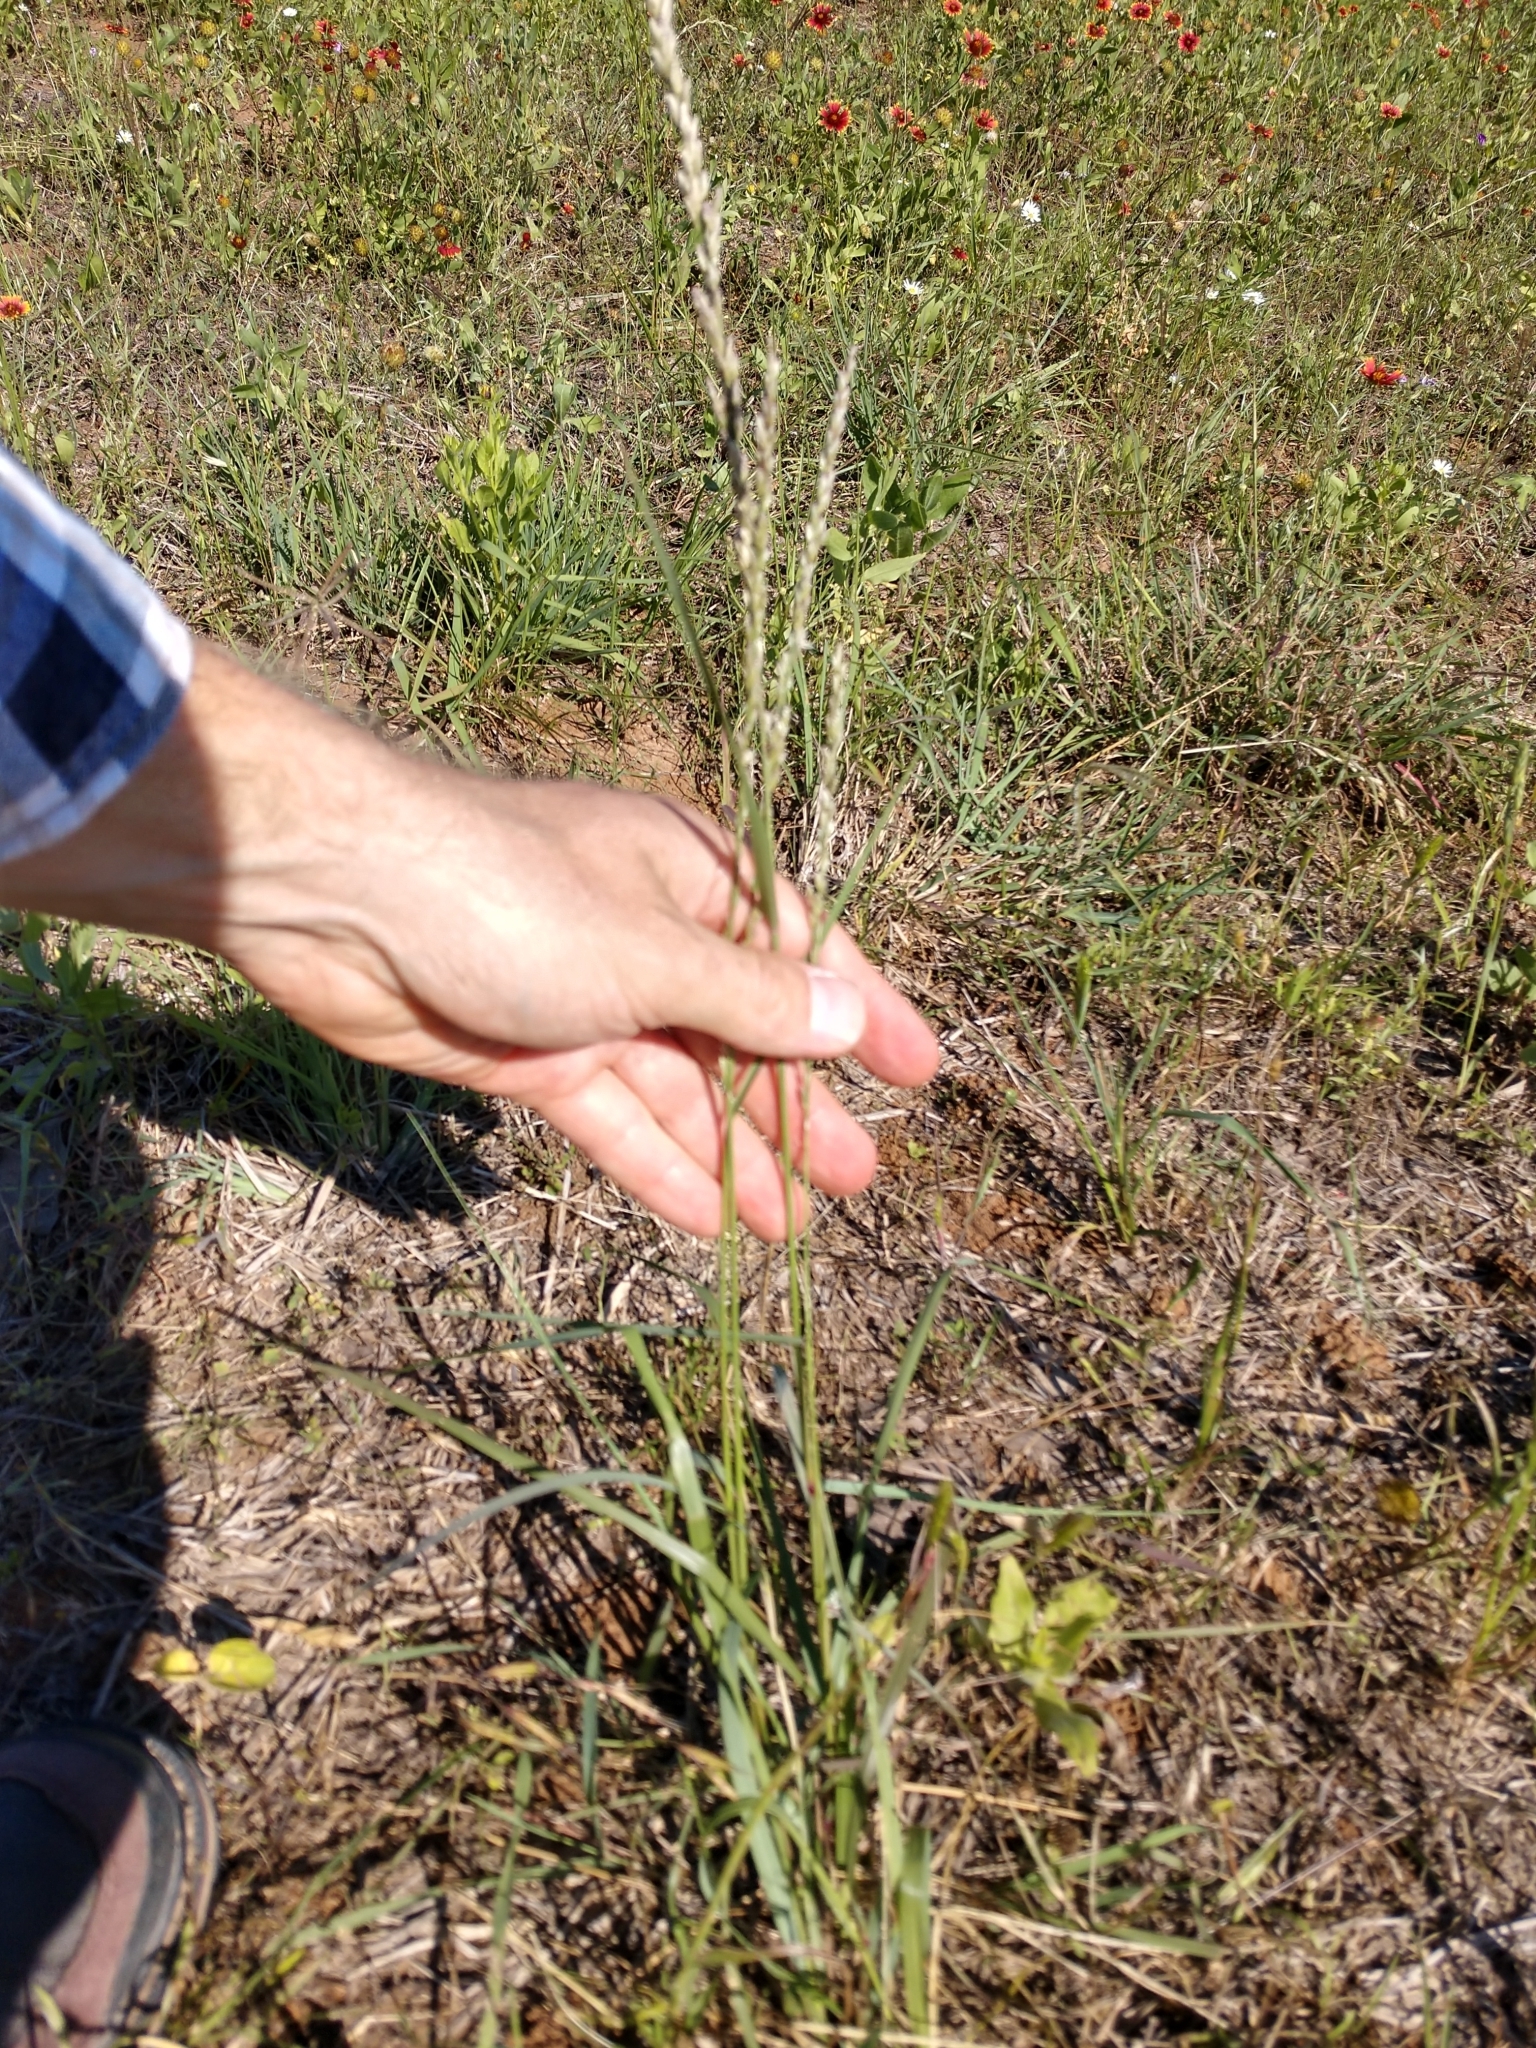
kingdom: Plantae
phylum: Tracheophyta
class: Liliopsida
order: Poales
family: Poaceae
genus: Tridens
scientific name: Tridens albescens
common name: White tridens
